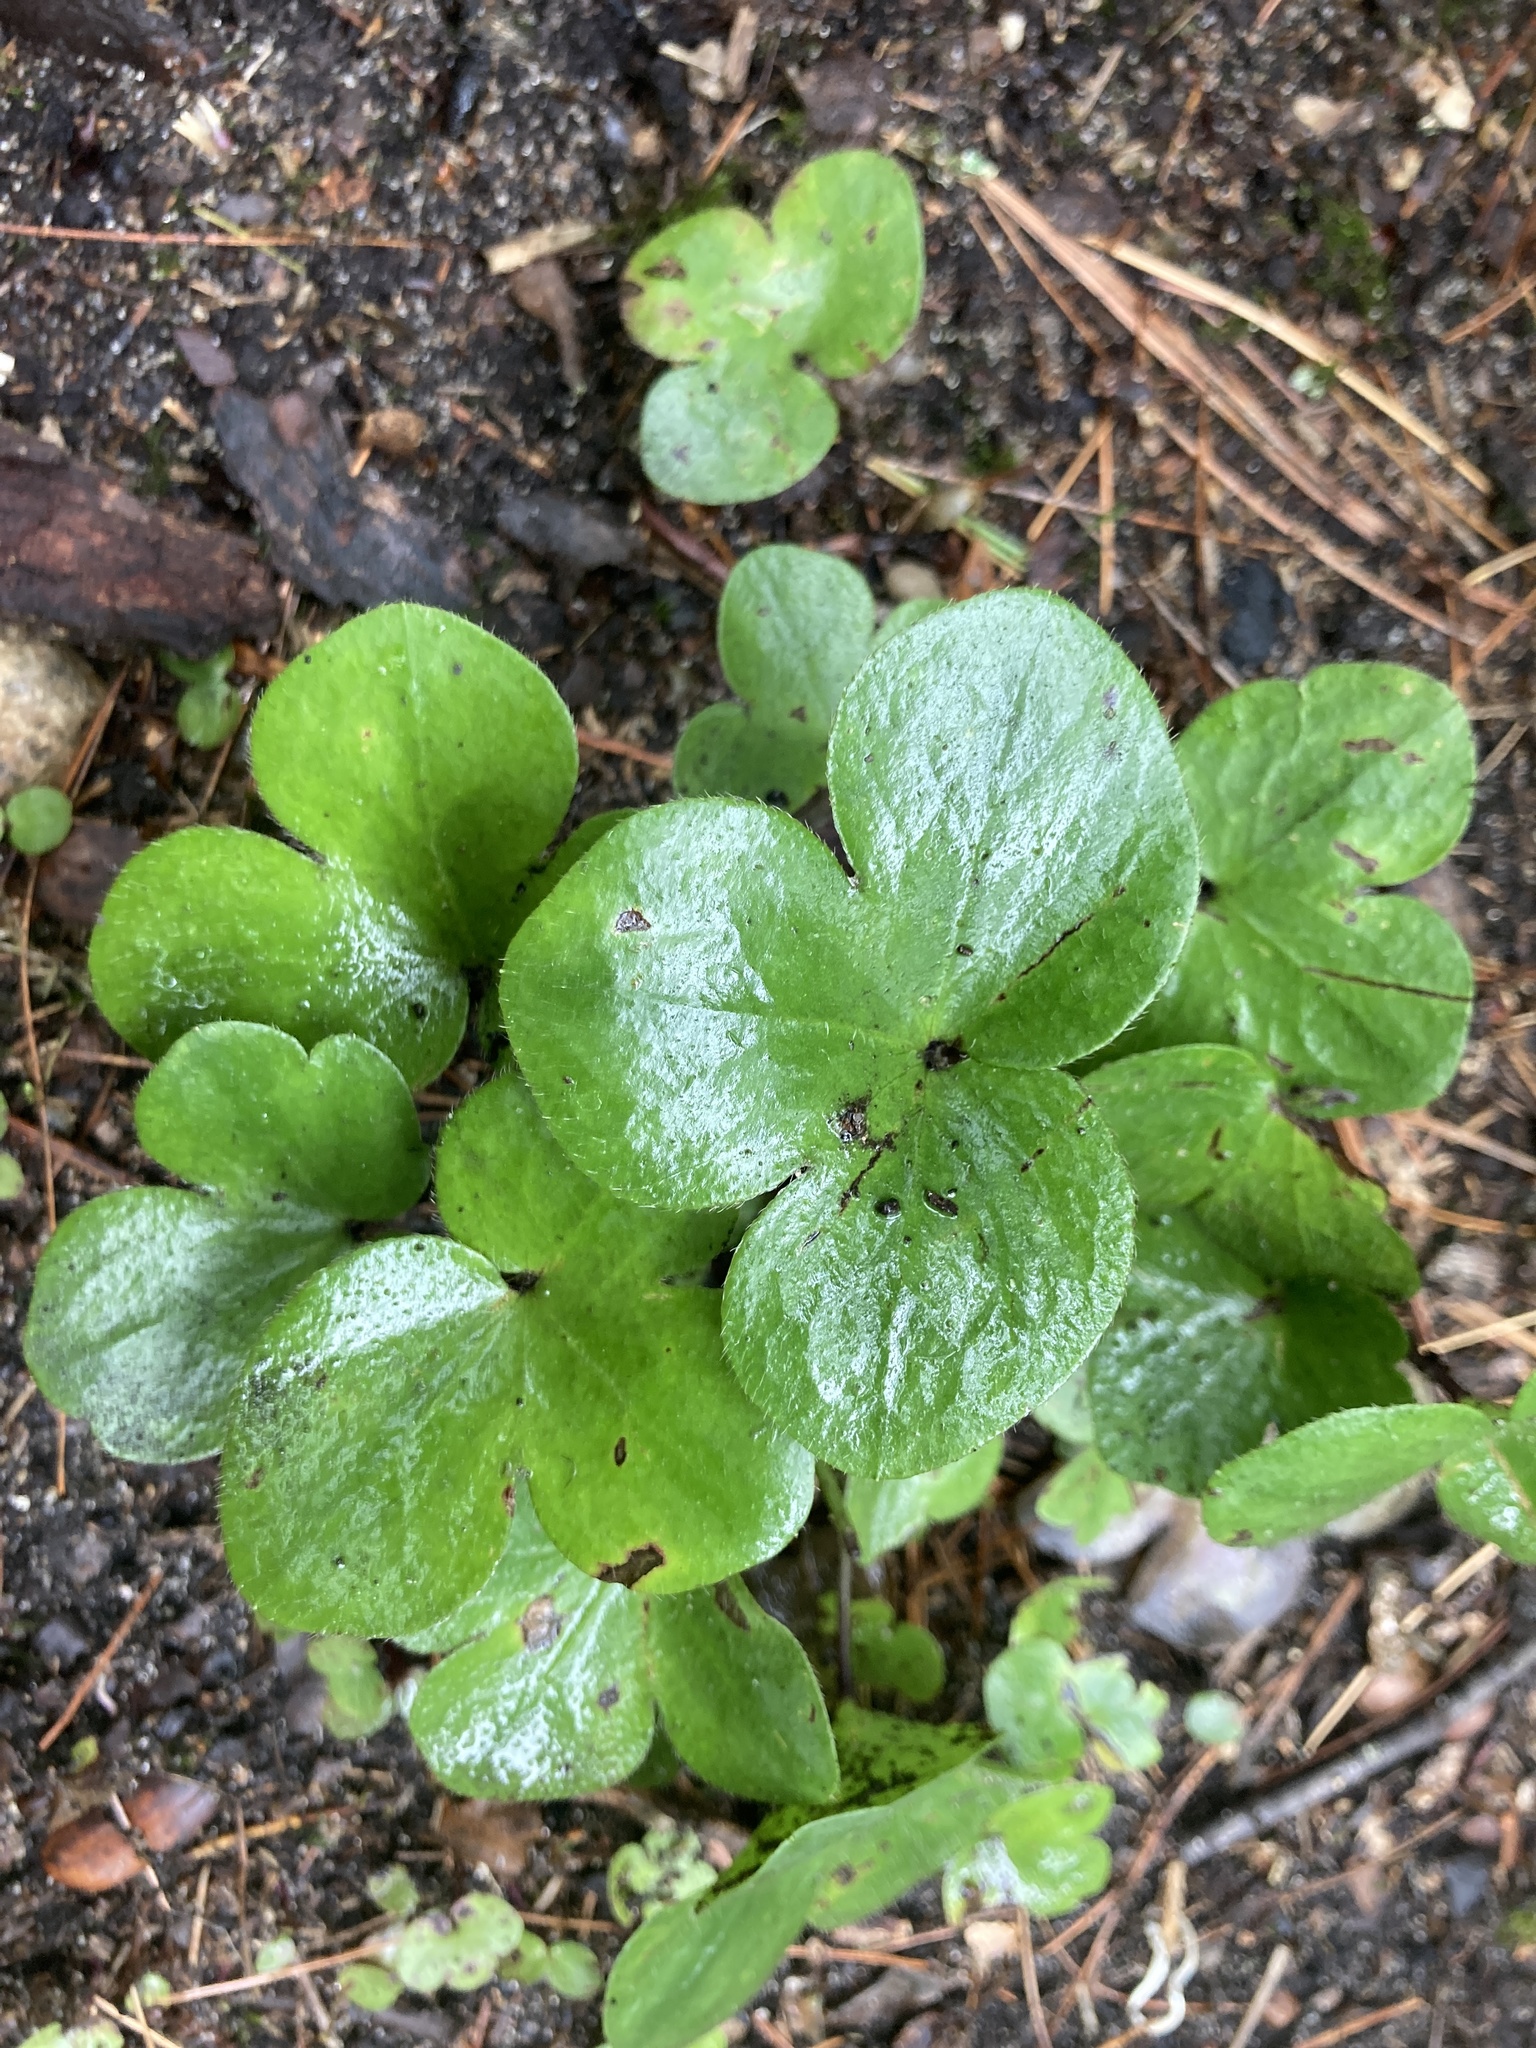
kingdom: Plantae
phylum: Tracheophyta
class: Magnoliopsida
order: Ranunculales
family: Ranunculaceae
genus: Hepatica
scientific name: Hepatica americana
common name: American hepatica
